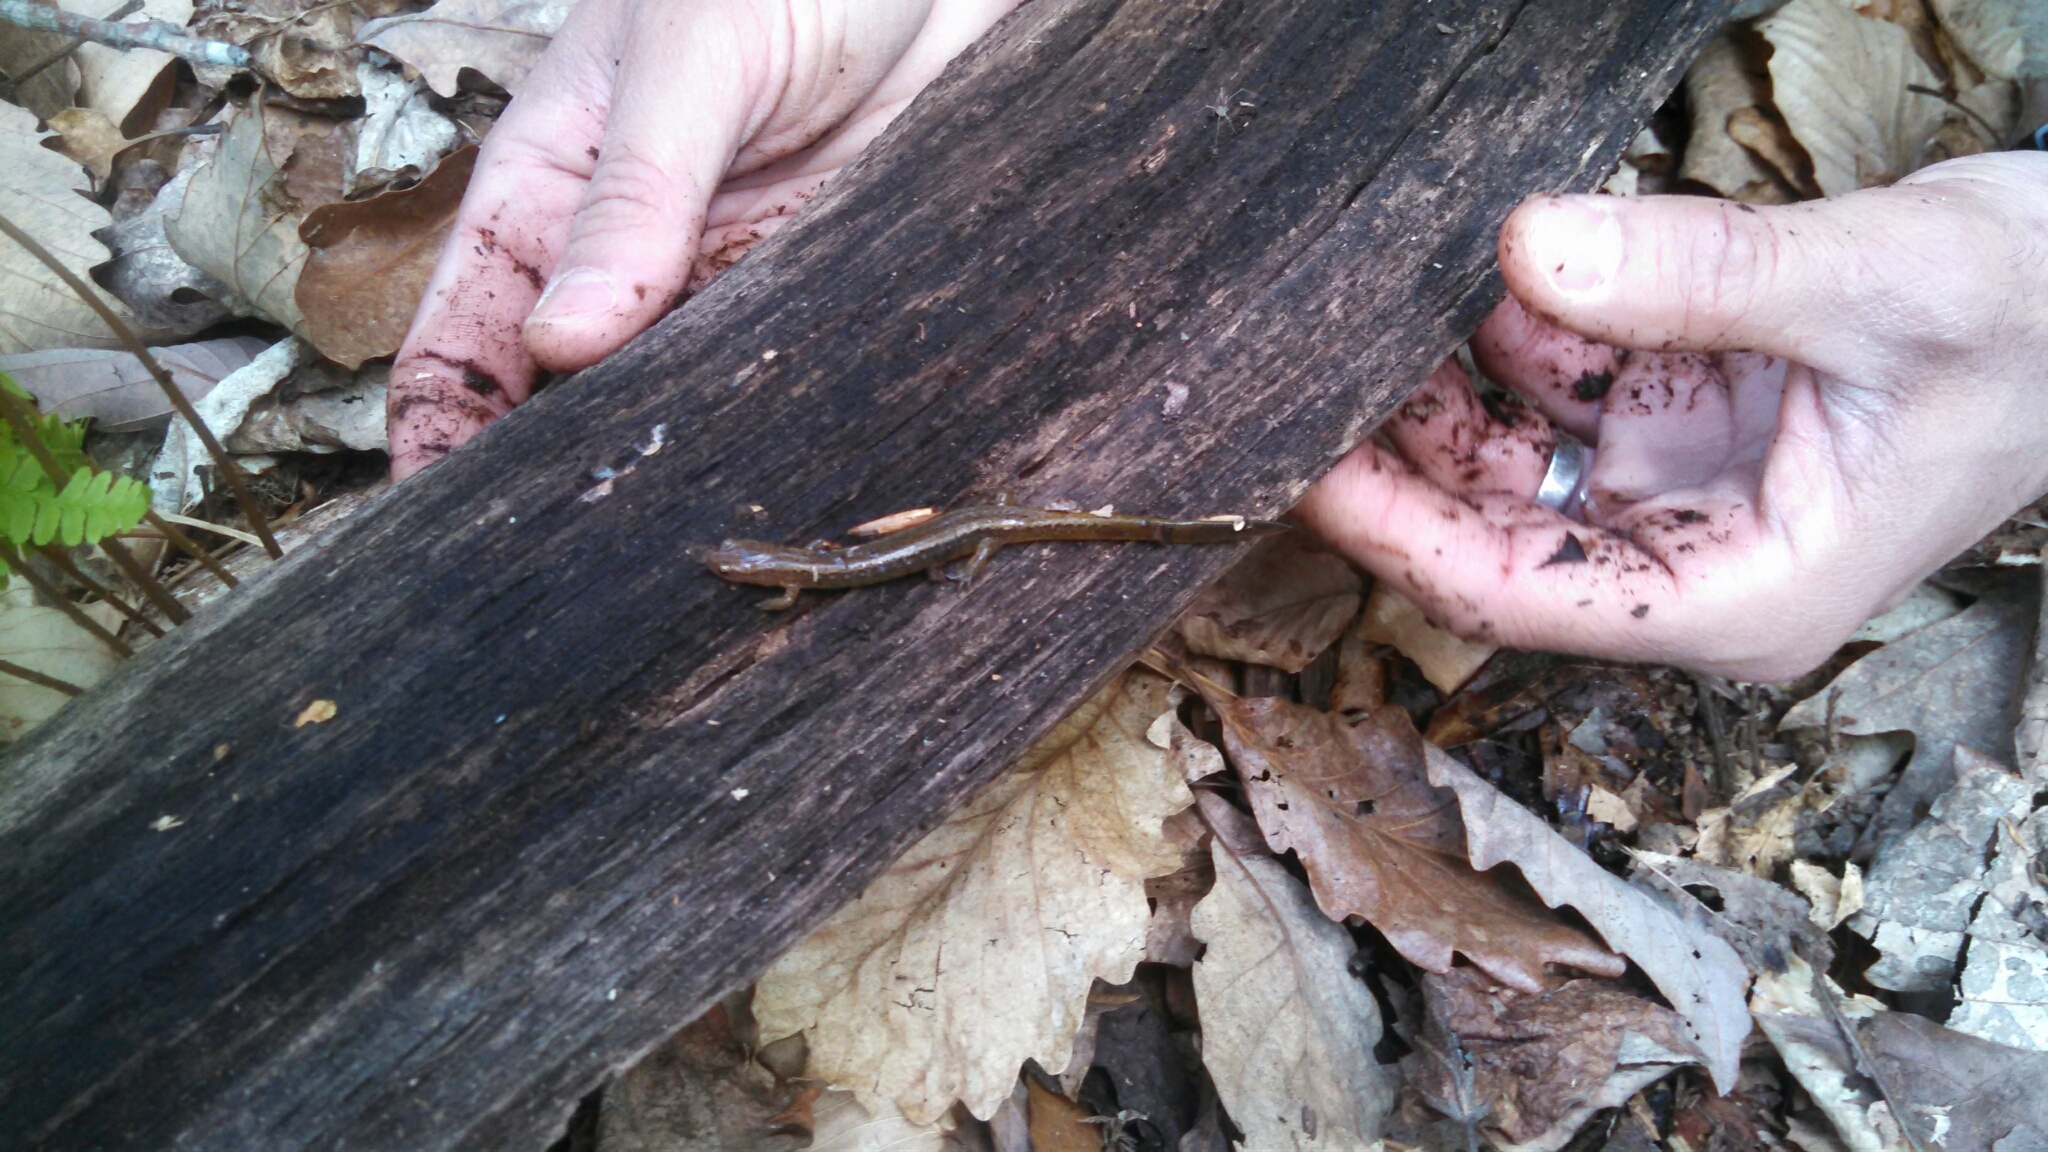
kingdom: Animalia
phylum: Chordata
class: Amphibia
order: Caudata
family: Plethodontidae
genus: Eurycea
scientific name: Eurycea bislineata
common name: Northern two-lined salamander
